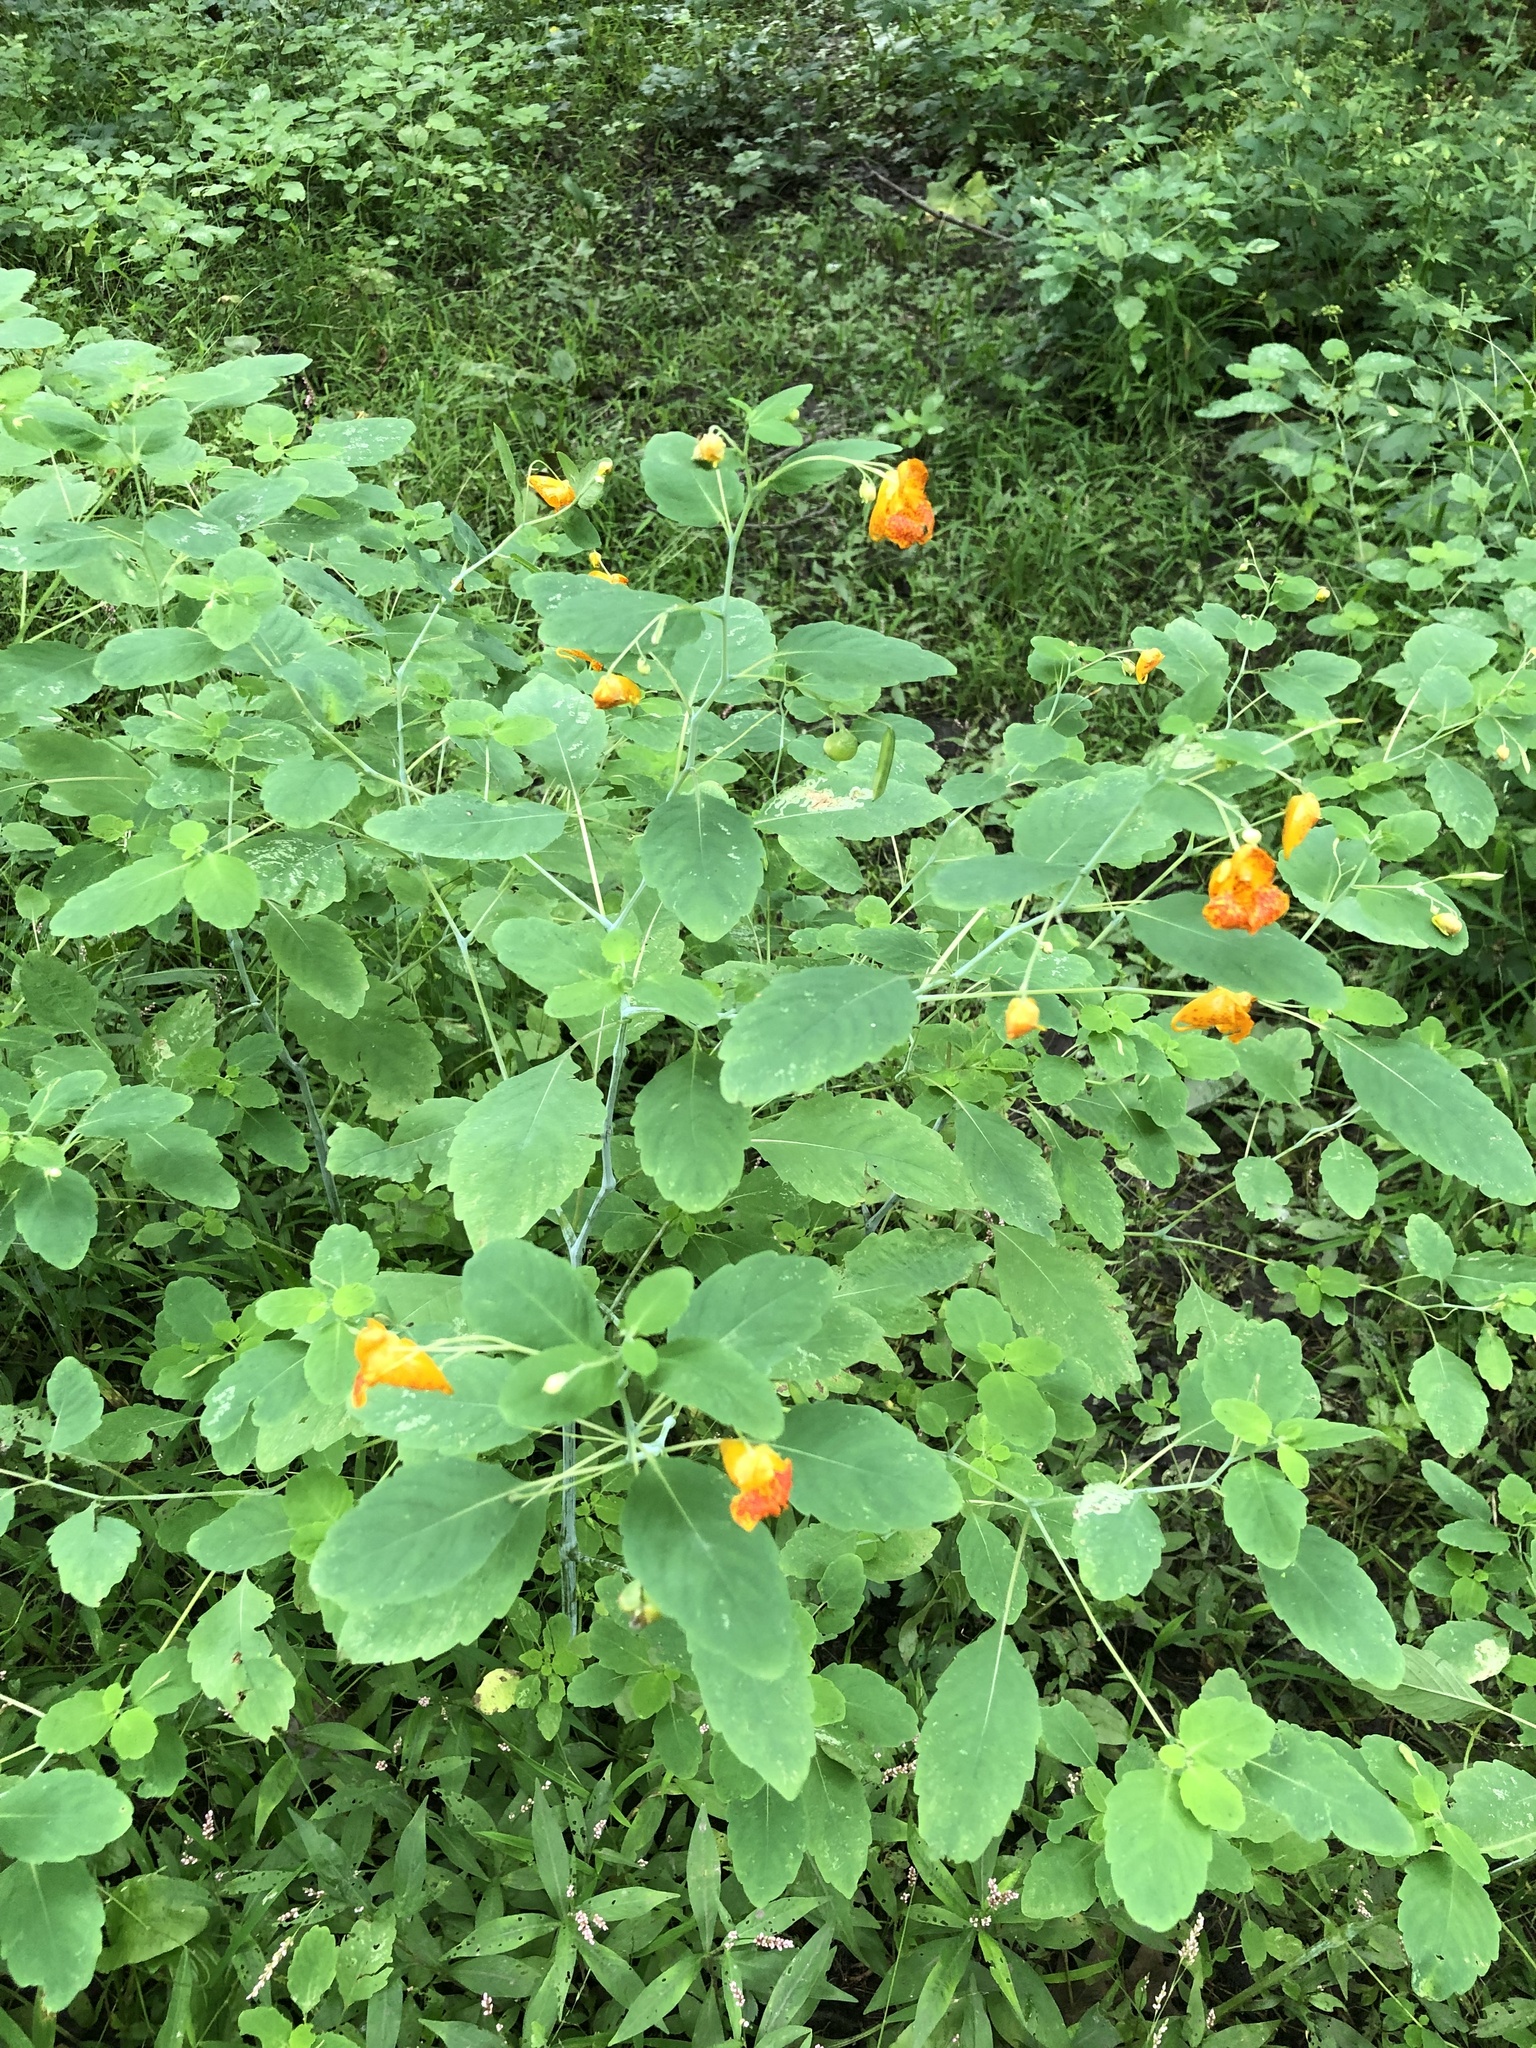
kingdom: Plantae
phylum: Tracheophyta
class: Magnoliopsida
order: Ericales
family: Balsaminaceae
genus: Impatiens
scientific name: Impatiens capensis
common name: Orange balsam
